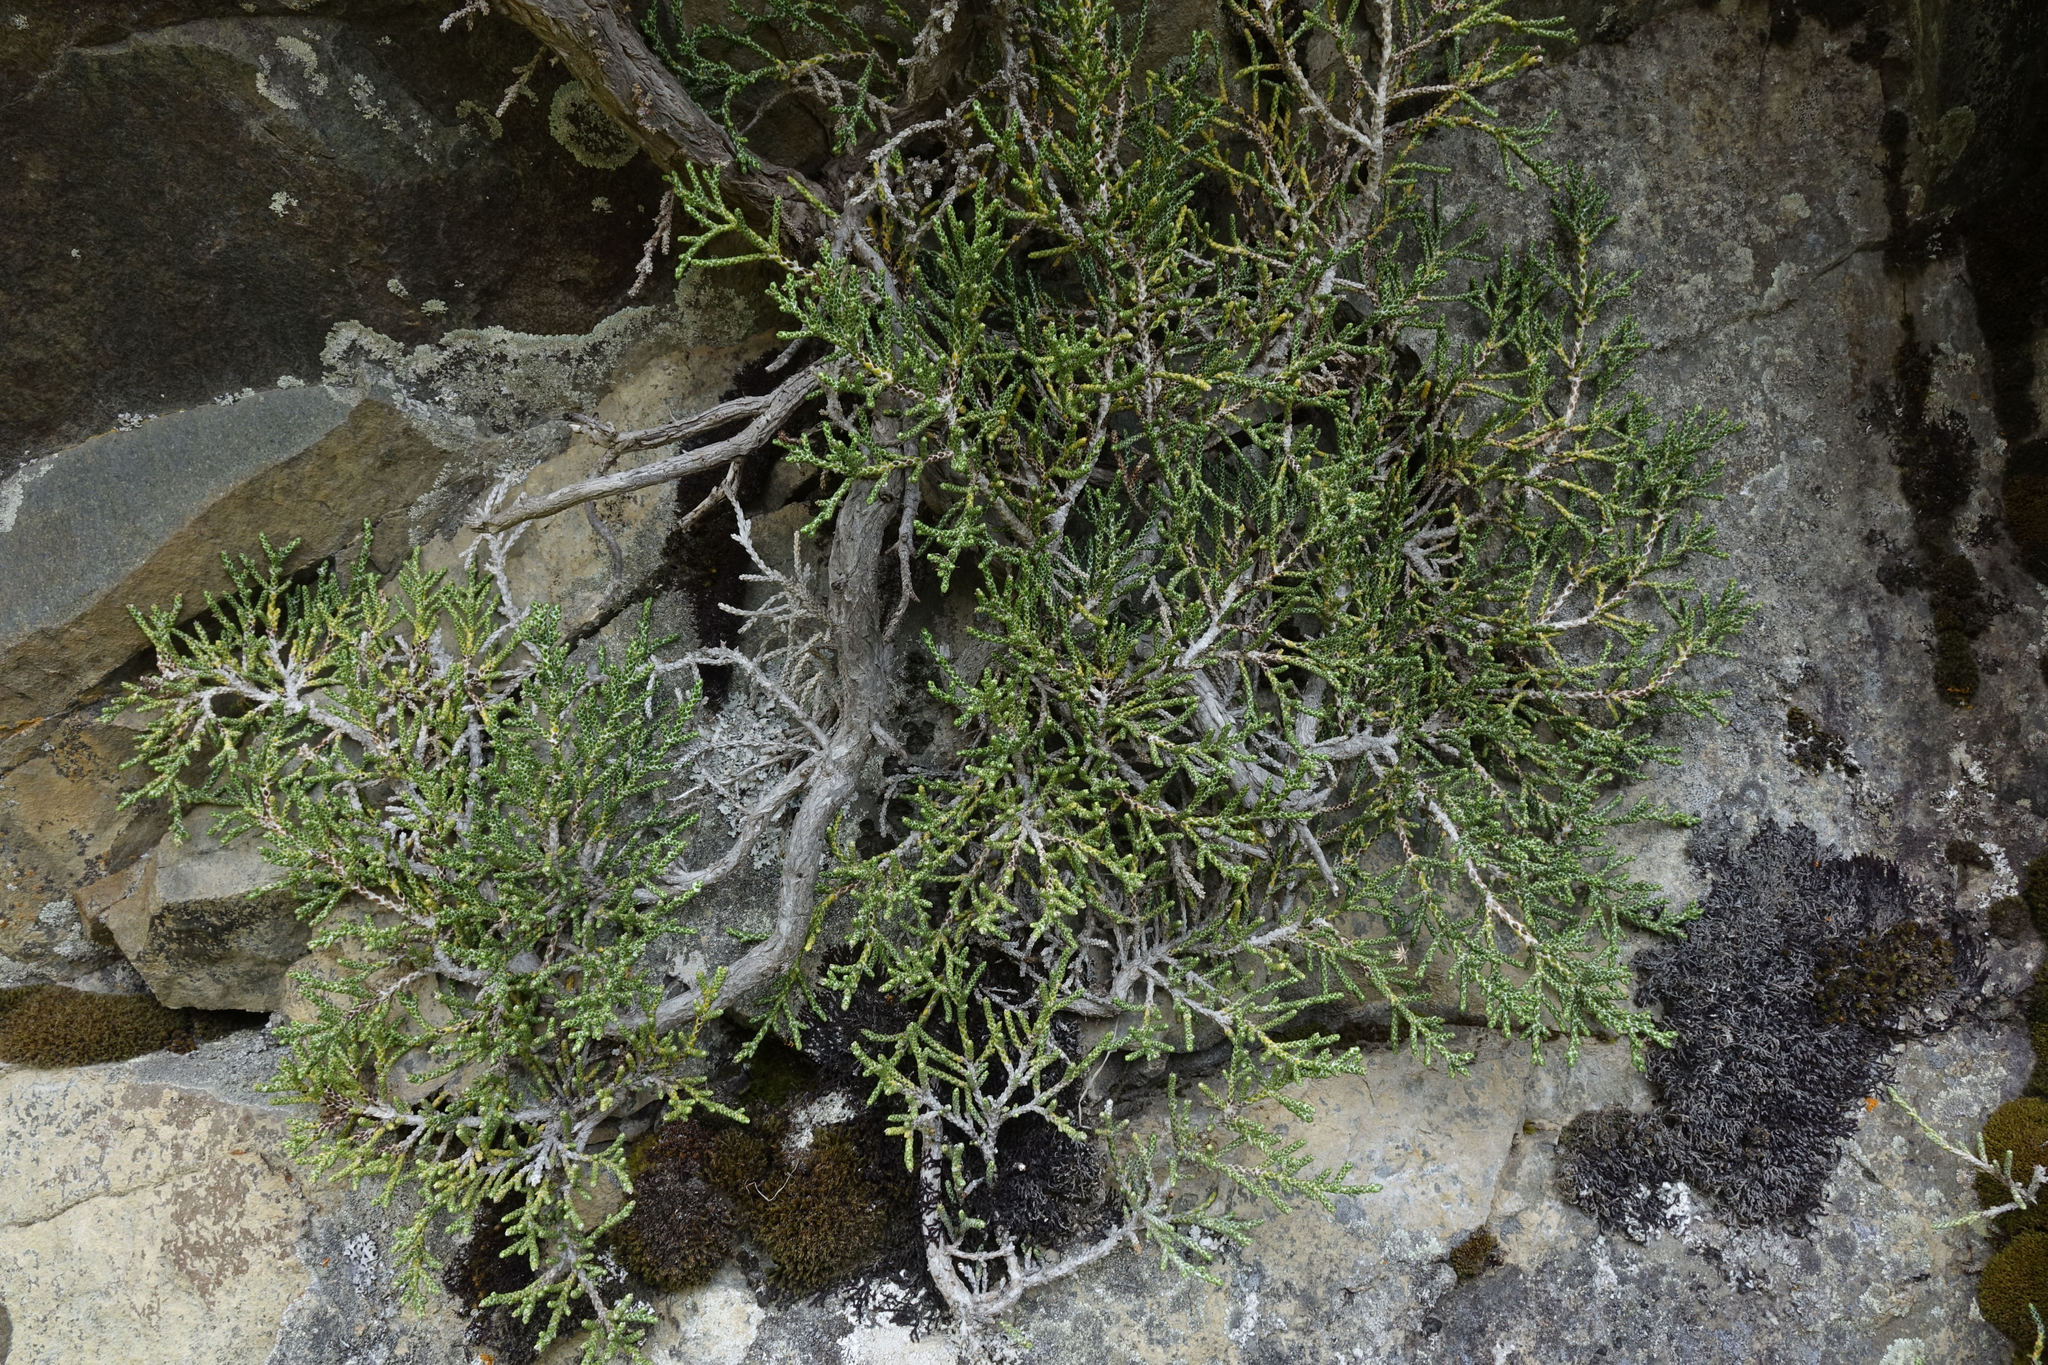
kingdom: Plantae
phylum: Tracheophyta
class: Magnoliopsida
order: Asterales
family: Asteraceae
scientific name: Asteraceae
